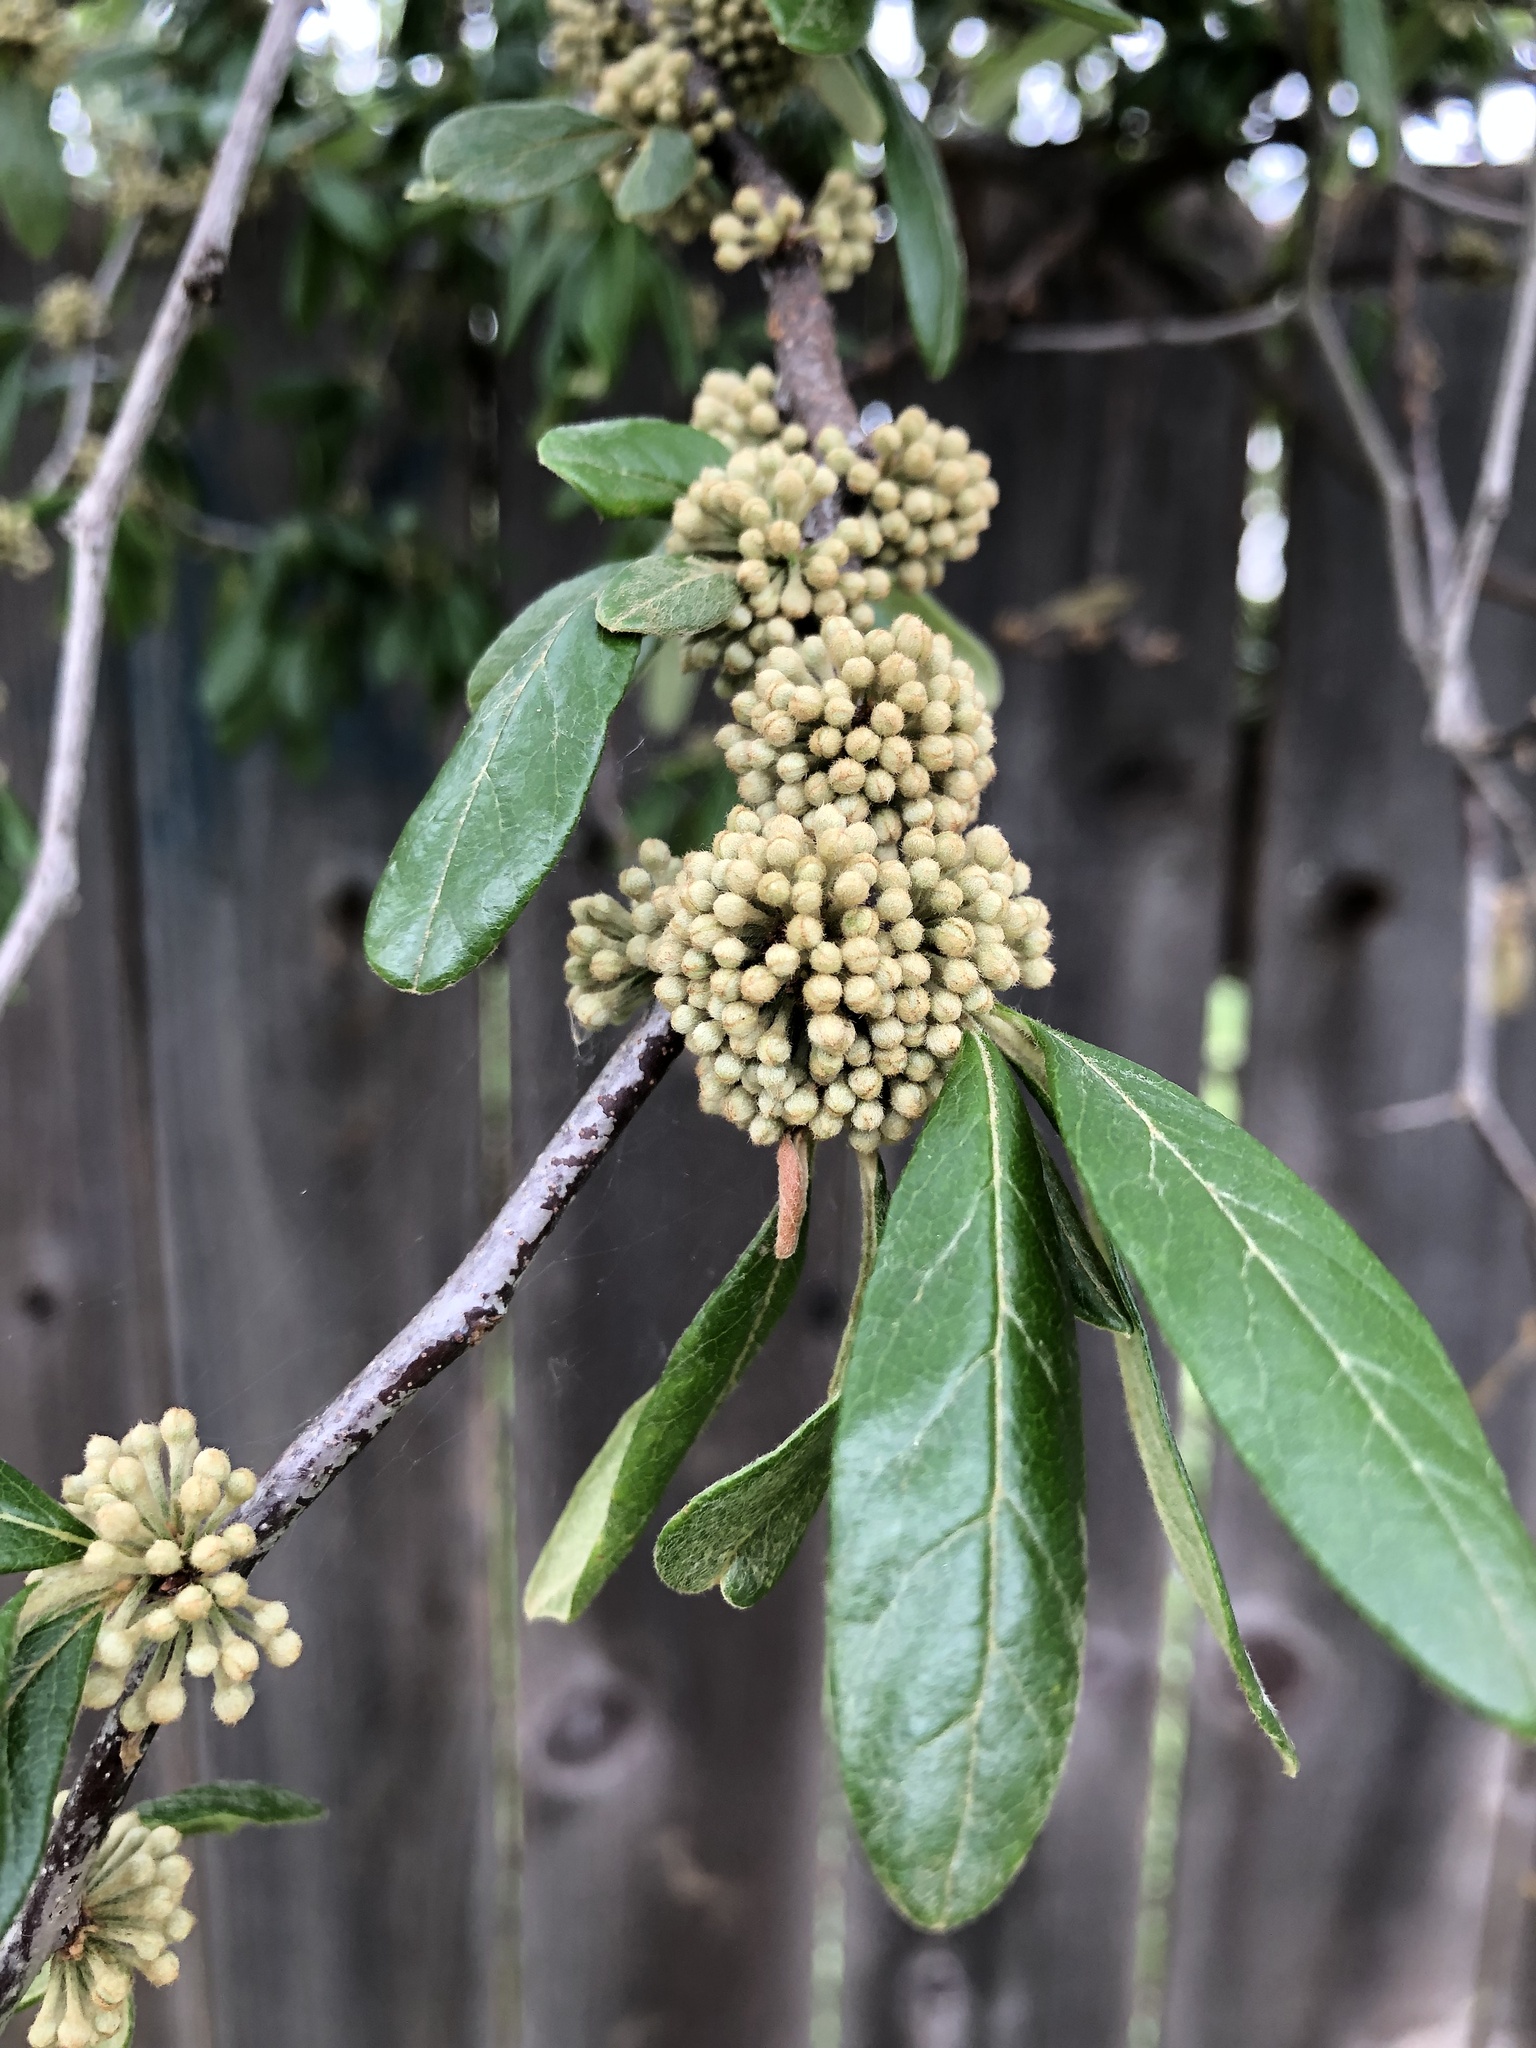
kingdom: Plantae
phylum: Tracheophyta
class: Magnoliopsida
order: Ericales
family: Sapotaceae
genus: Sideroxylon
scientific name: Sideroxylon lanuginosum
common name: Chittamwood
